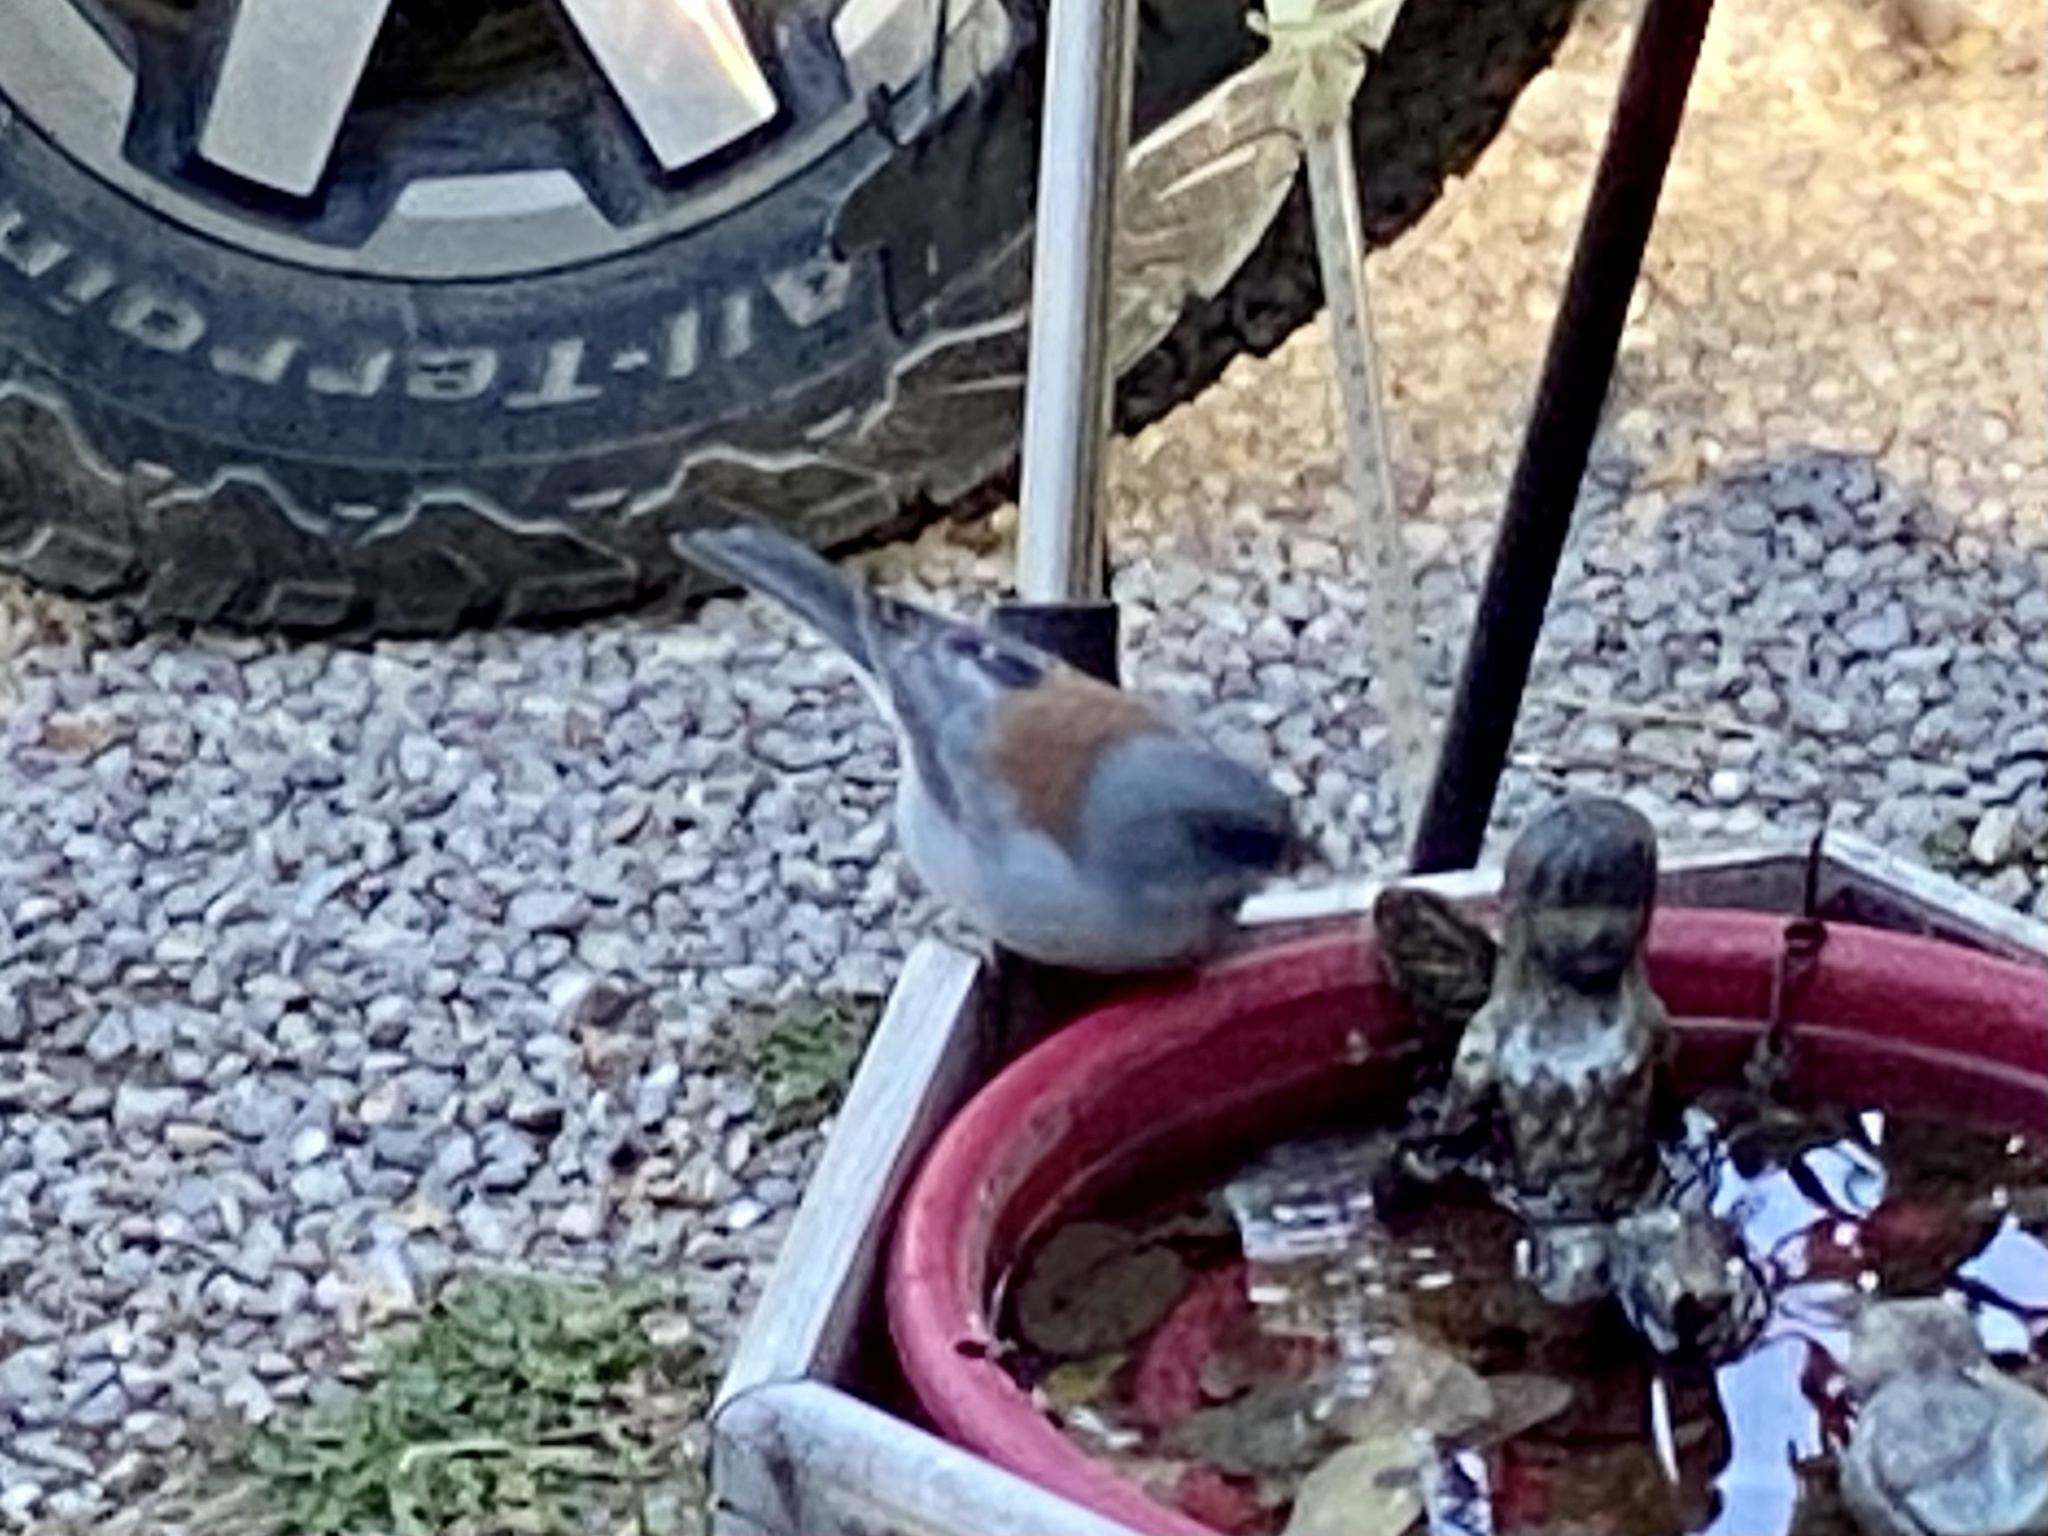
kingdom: Animalia
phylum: Chordata
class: Aves
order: Passeriformes
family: Passerellidae
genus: Junco
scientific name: Junco hyemalis
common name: Dark-eyed junco
